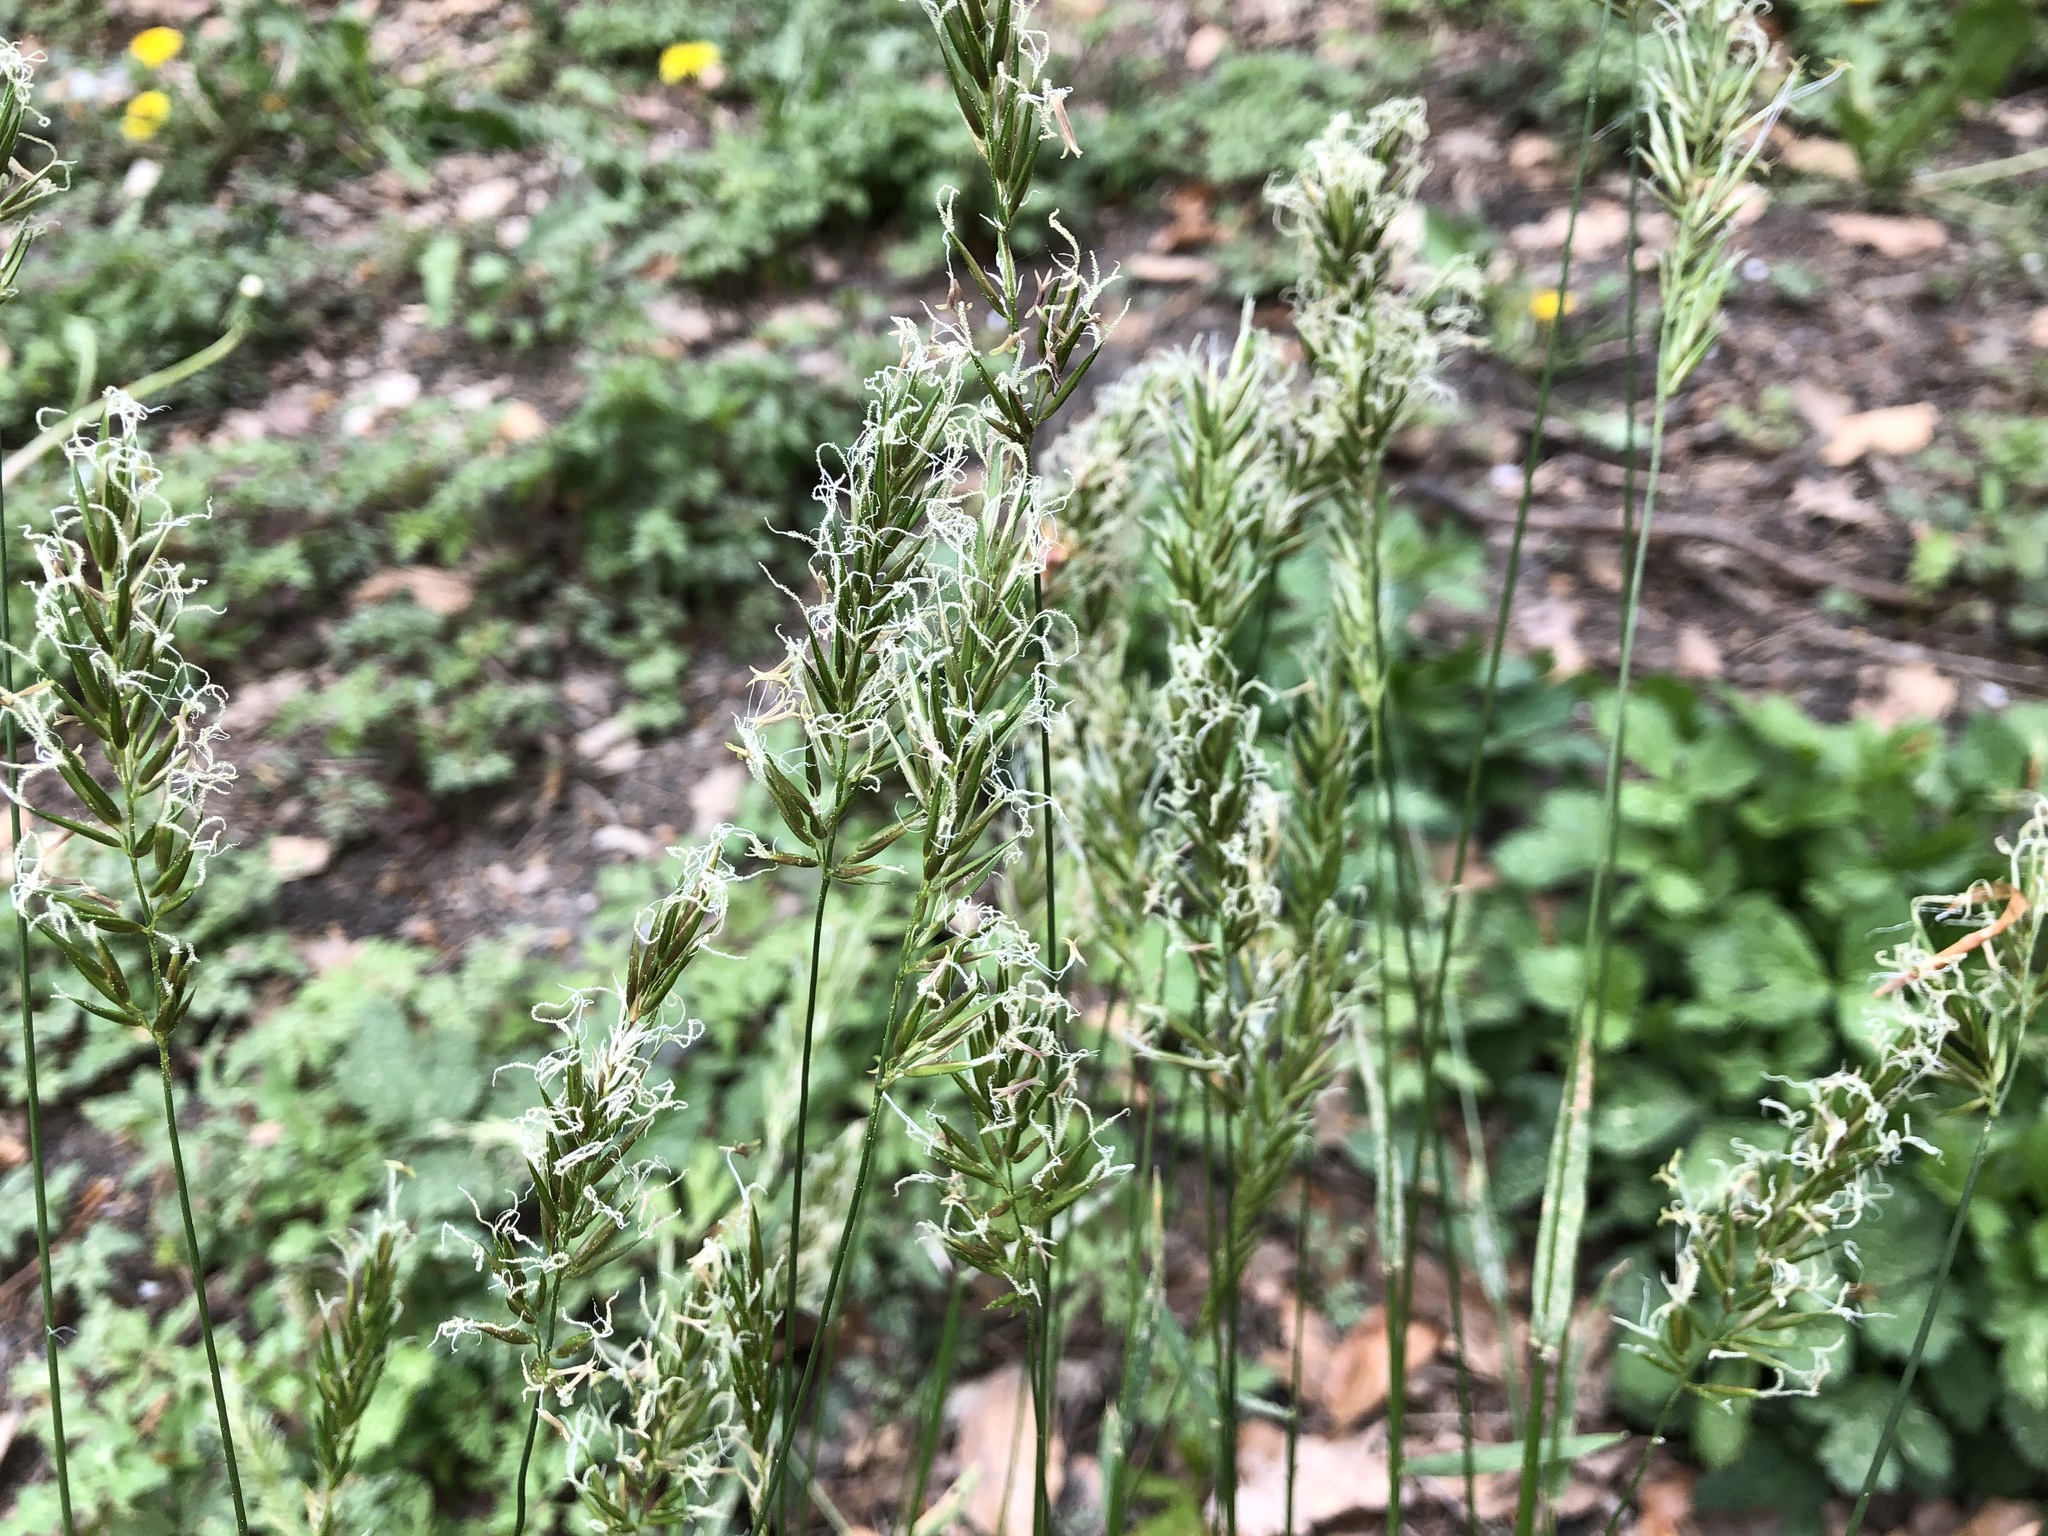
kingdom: Plantae
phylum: Tracheophyta
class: Liliopsida
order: Poales
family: Poaceae
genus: Anthoxanthum
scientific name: Anthoxanthum odoratum
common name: Sweet vernalgrass
